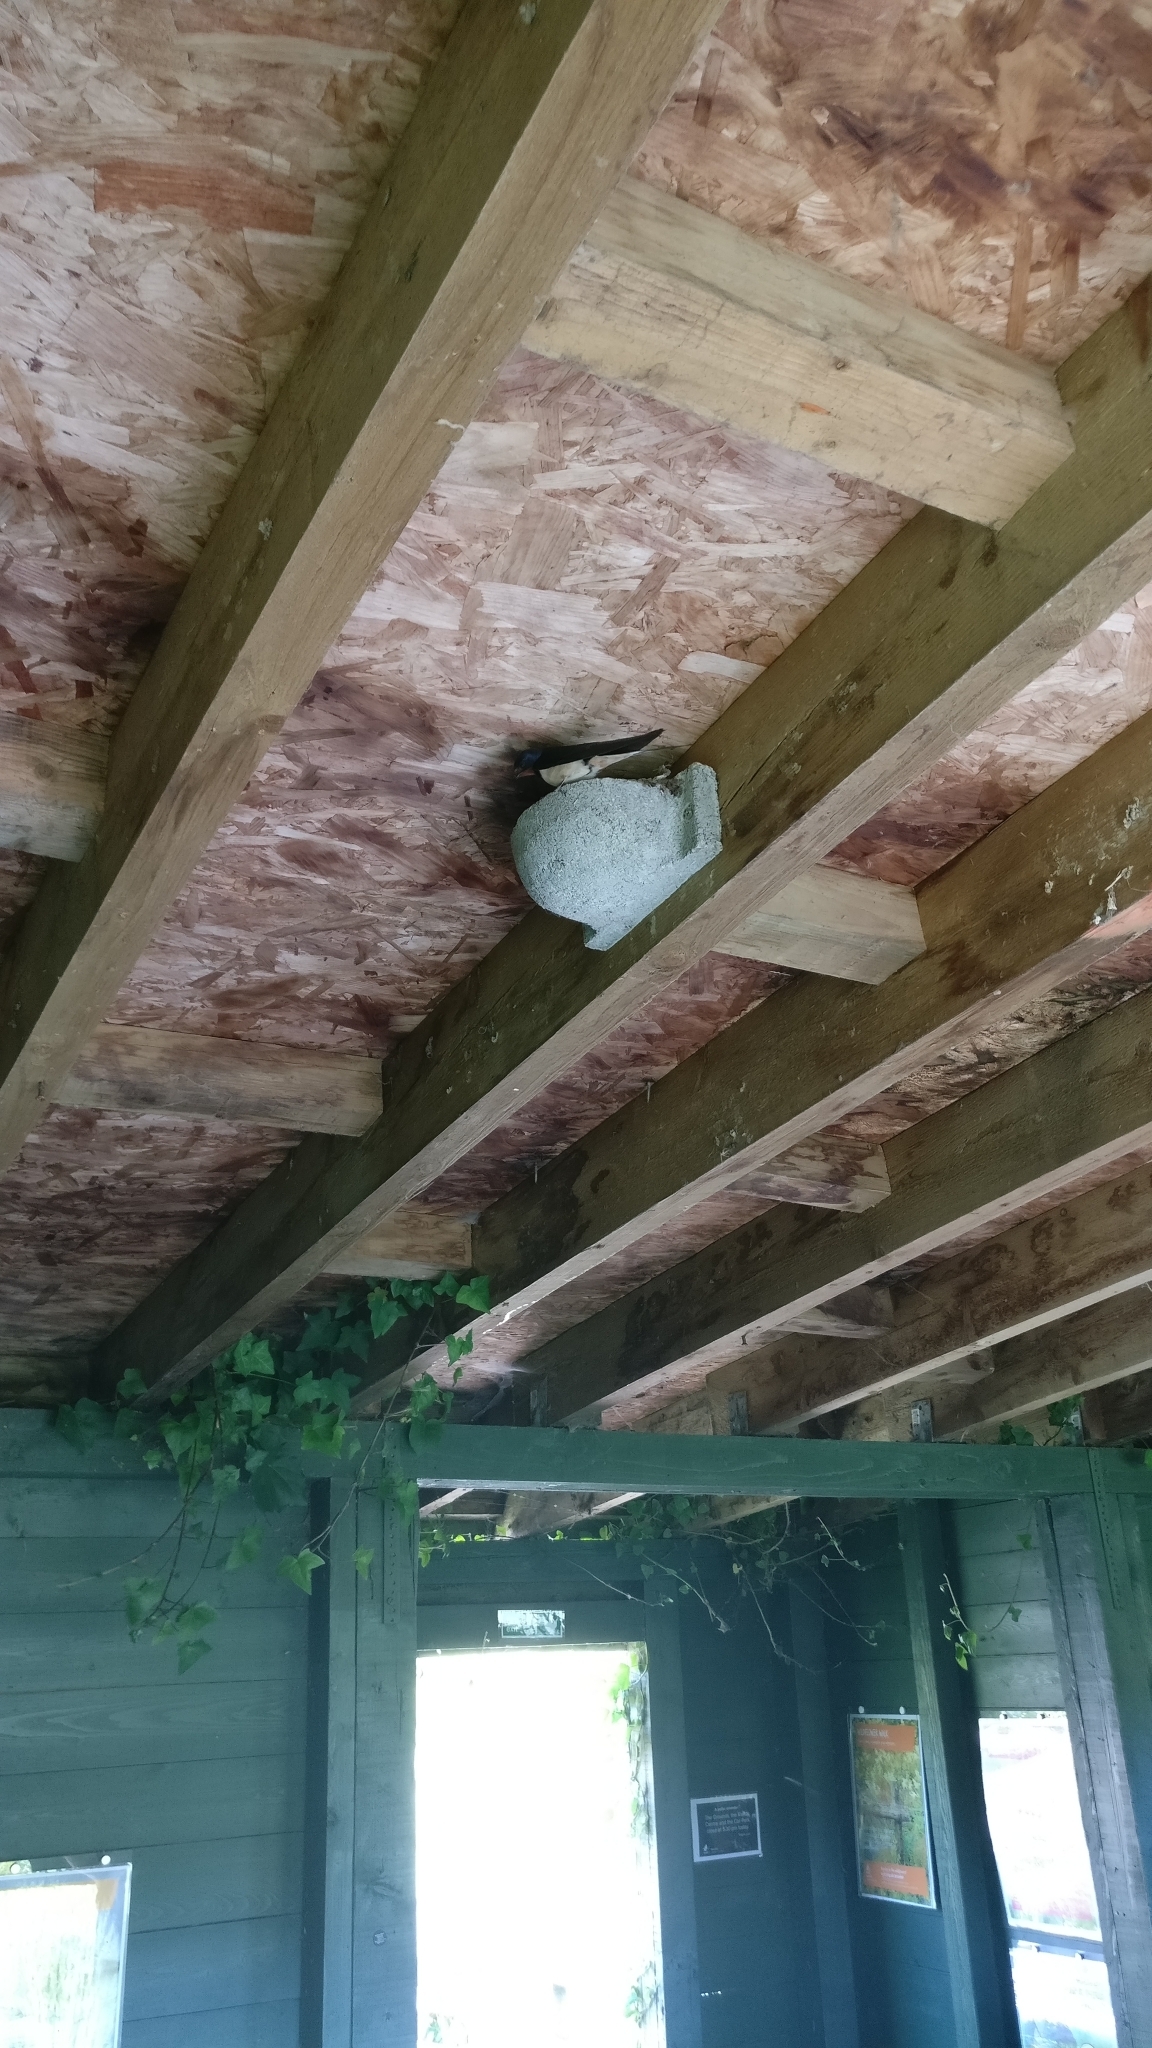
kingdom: Animalia
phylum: Chordata
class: Aves
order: Passeriformes
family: Hirundinidae
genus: Hirundo
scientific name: Hirundo rustica
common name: Barn swallow
